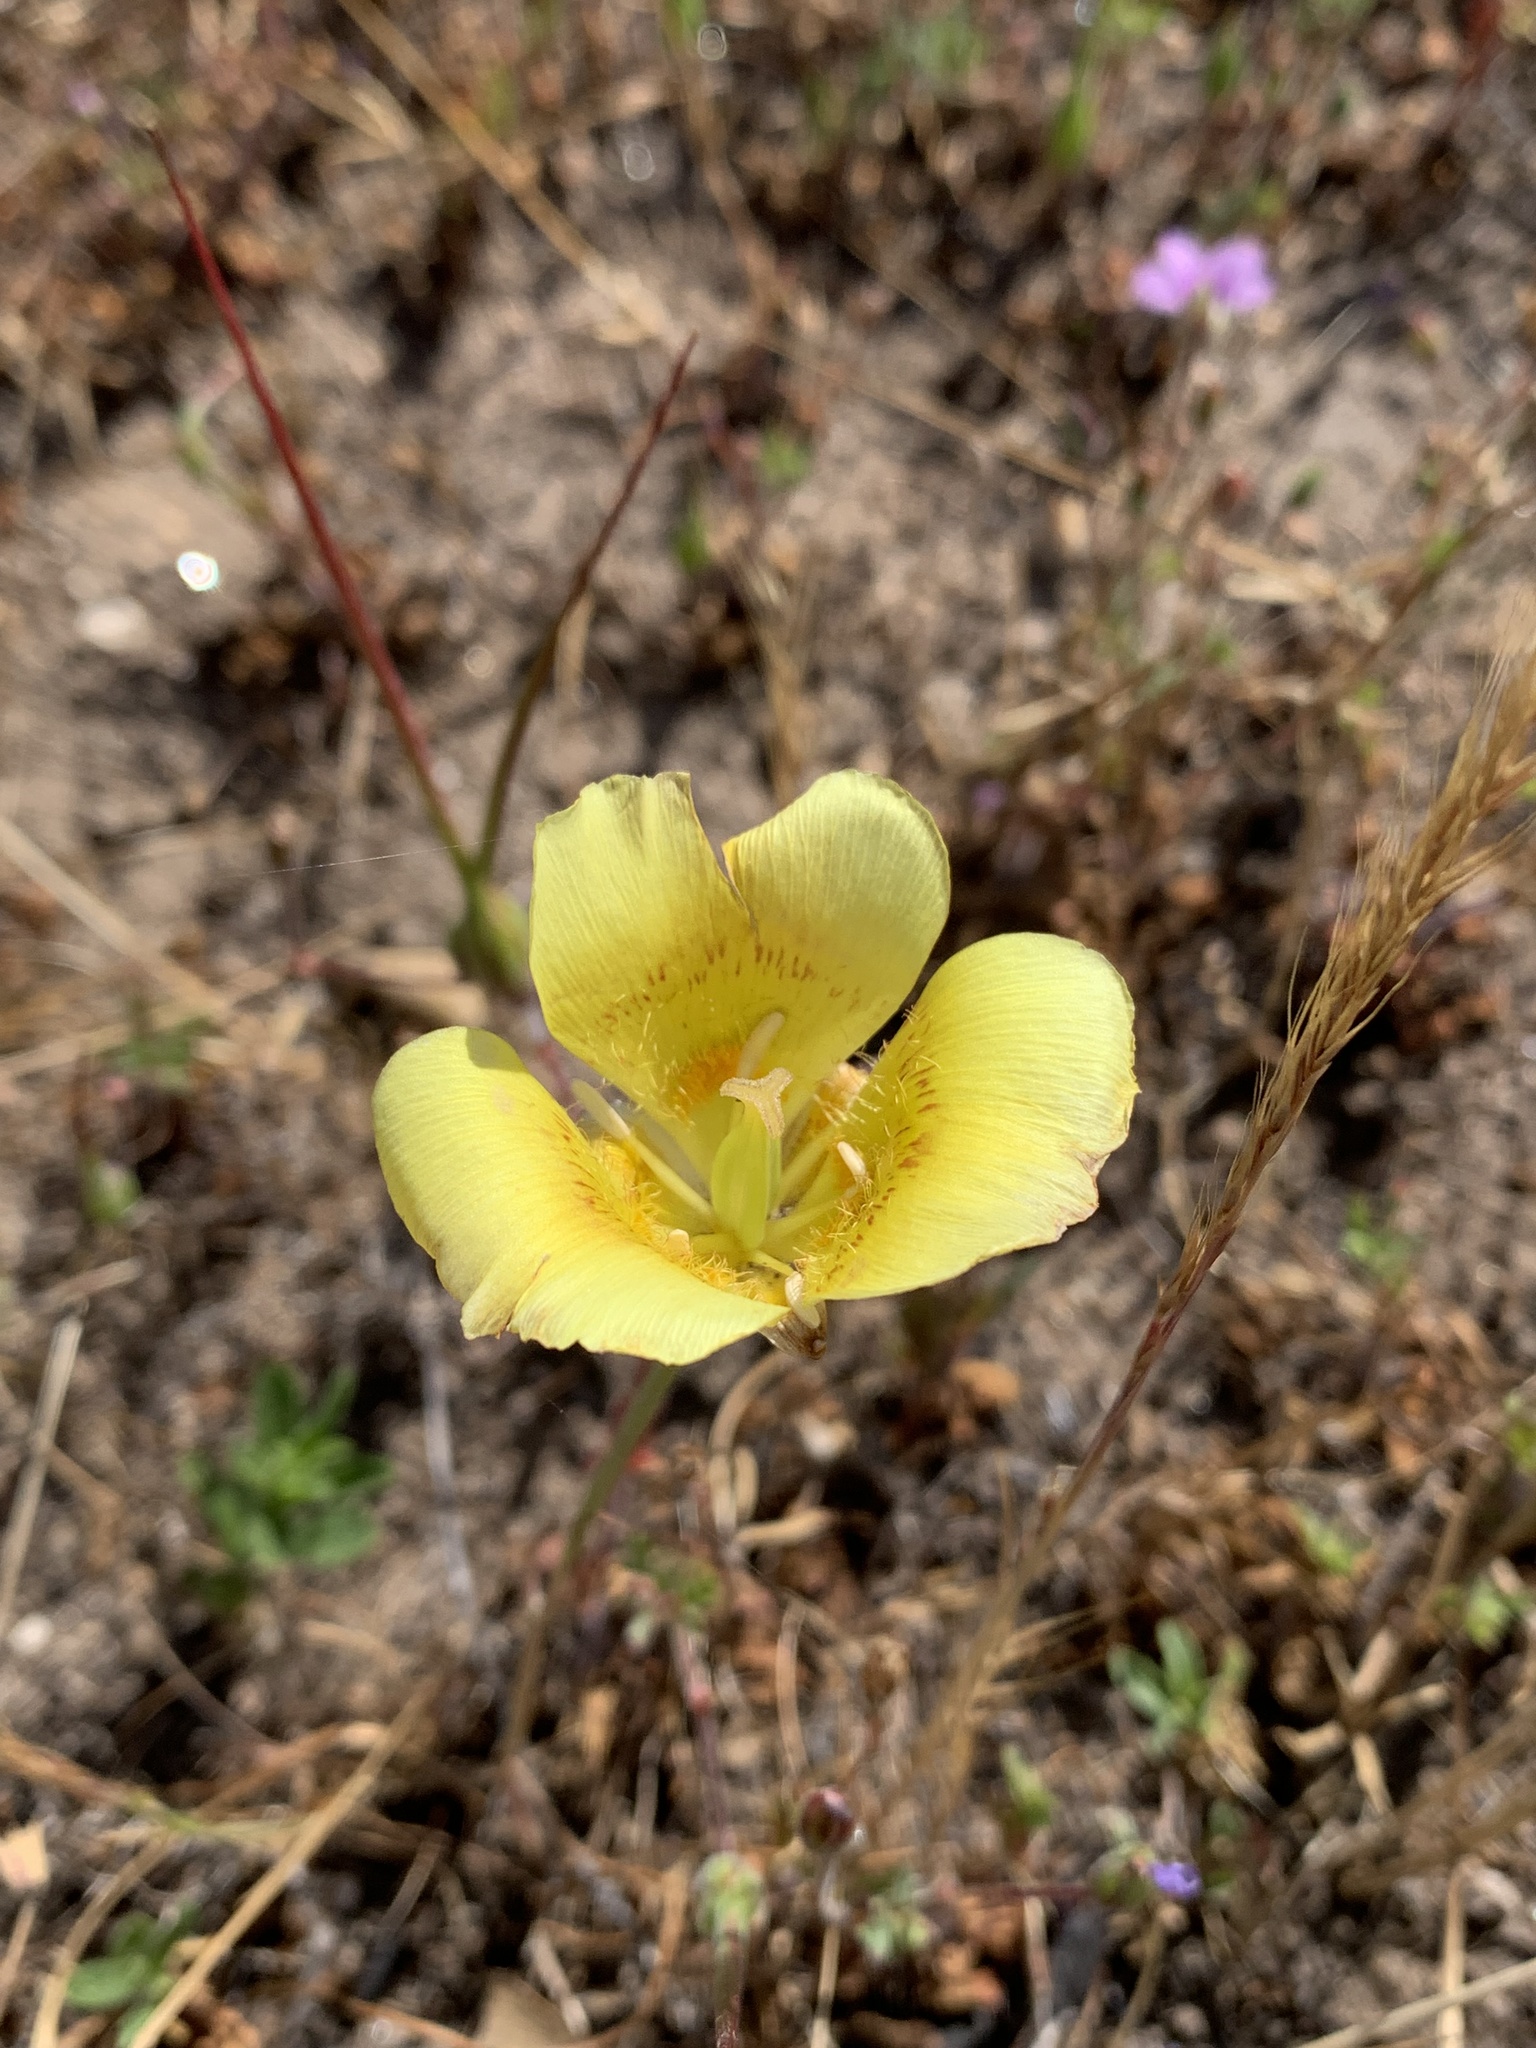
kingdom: Plantae
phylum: Tracheophyta
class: Liliopsida
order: Liliales
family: Liliaceae
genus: Calochortus
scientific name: Calochortus luteus
